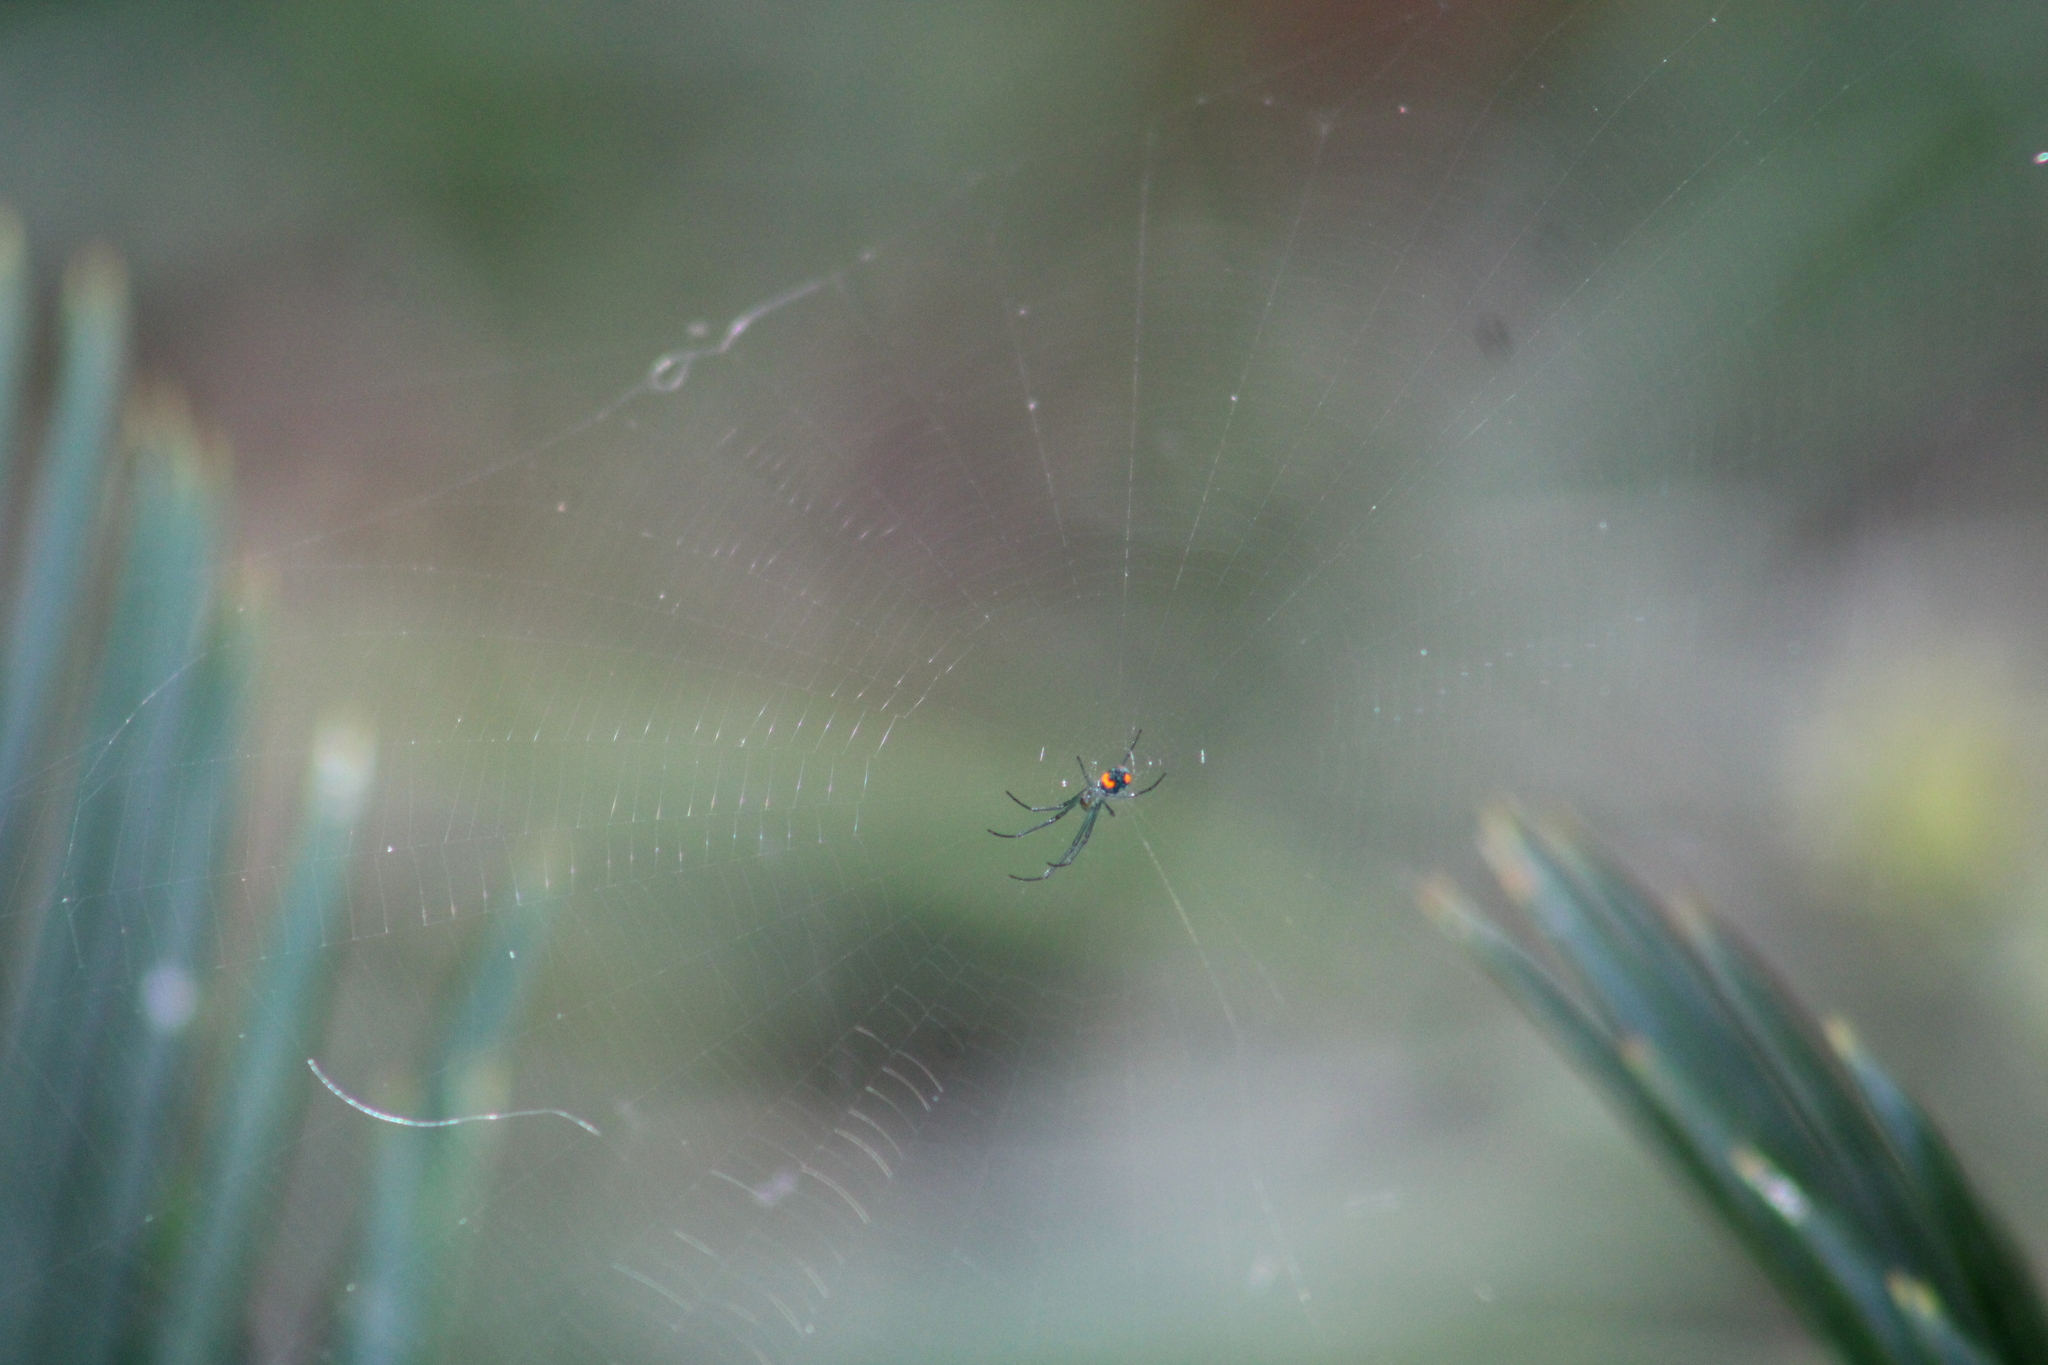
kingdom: Animalia
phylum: Arthropoda
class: Arachnida
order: Araneae
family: Tetragnathidae
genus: Leucauge
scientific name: Leucauge argyrobapta
